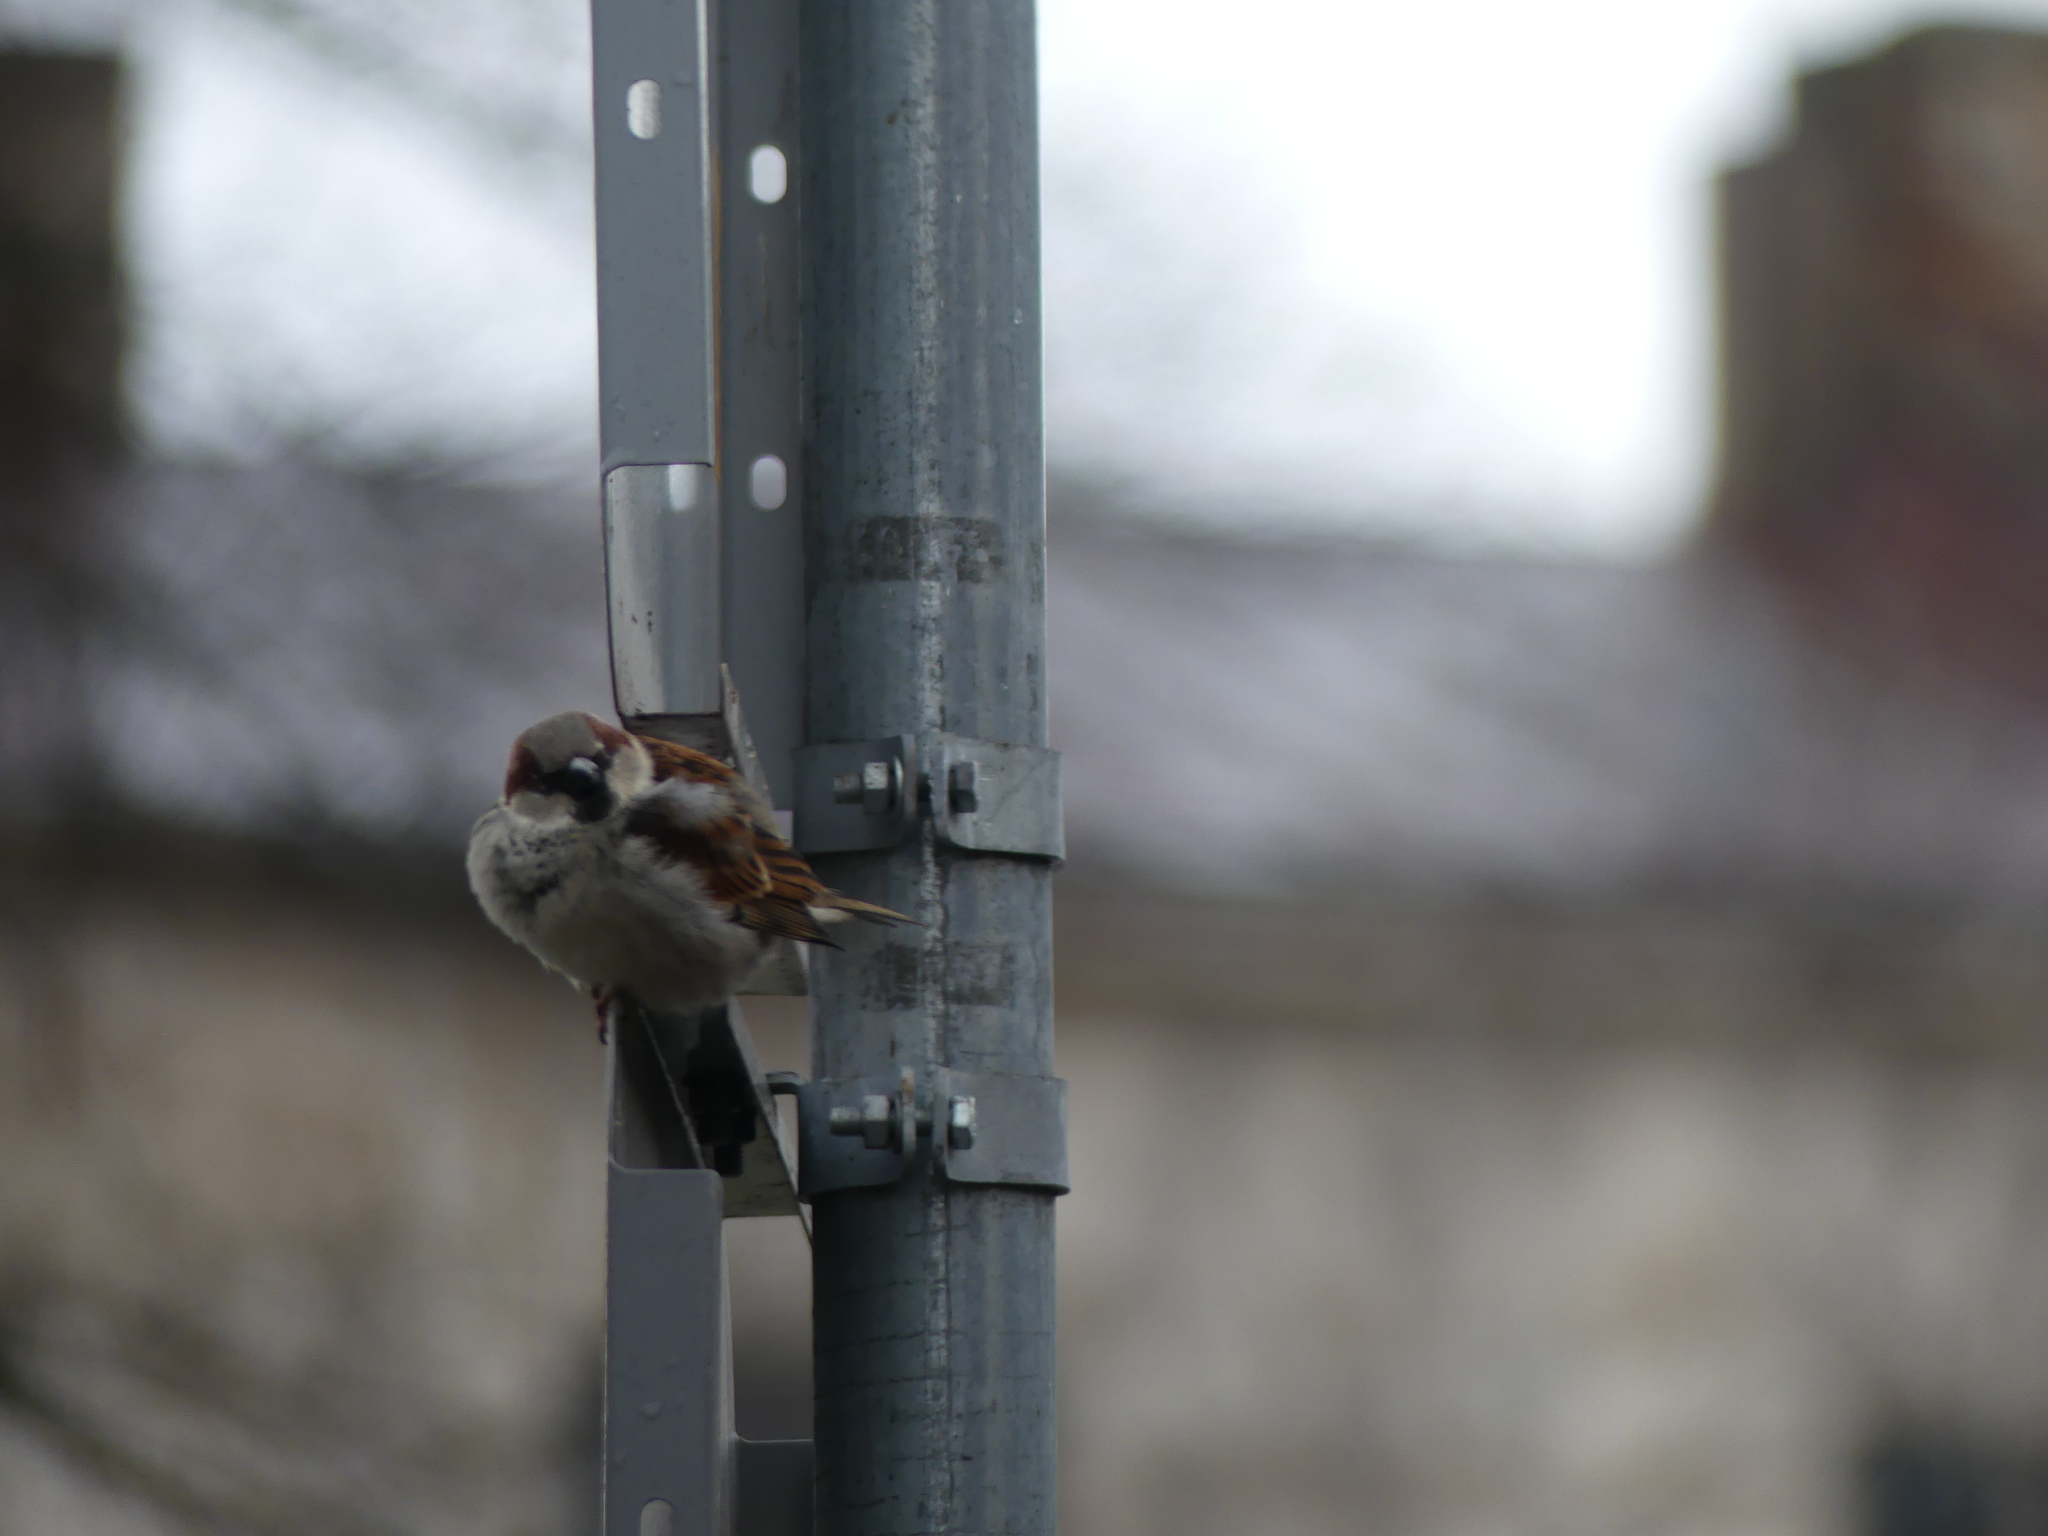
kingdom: Animalia
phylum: Chordata
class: Aves
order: Passeriformes
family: Passeridae
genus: Passer
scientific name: Passer domesticus
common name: House sparrow
